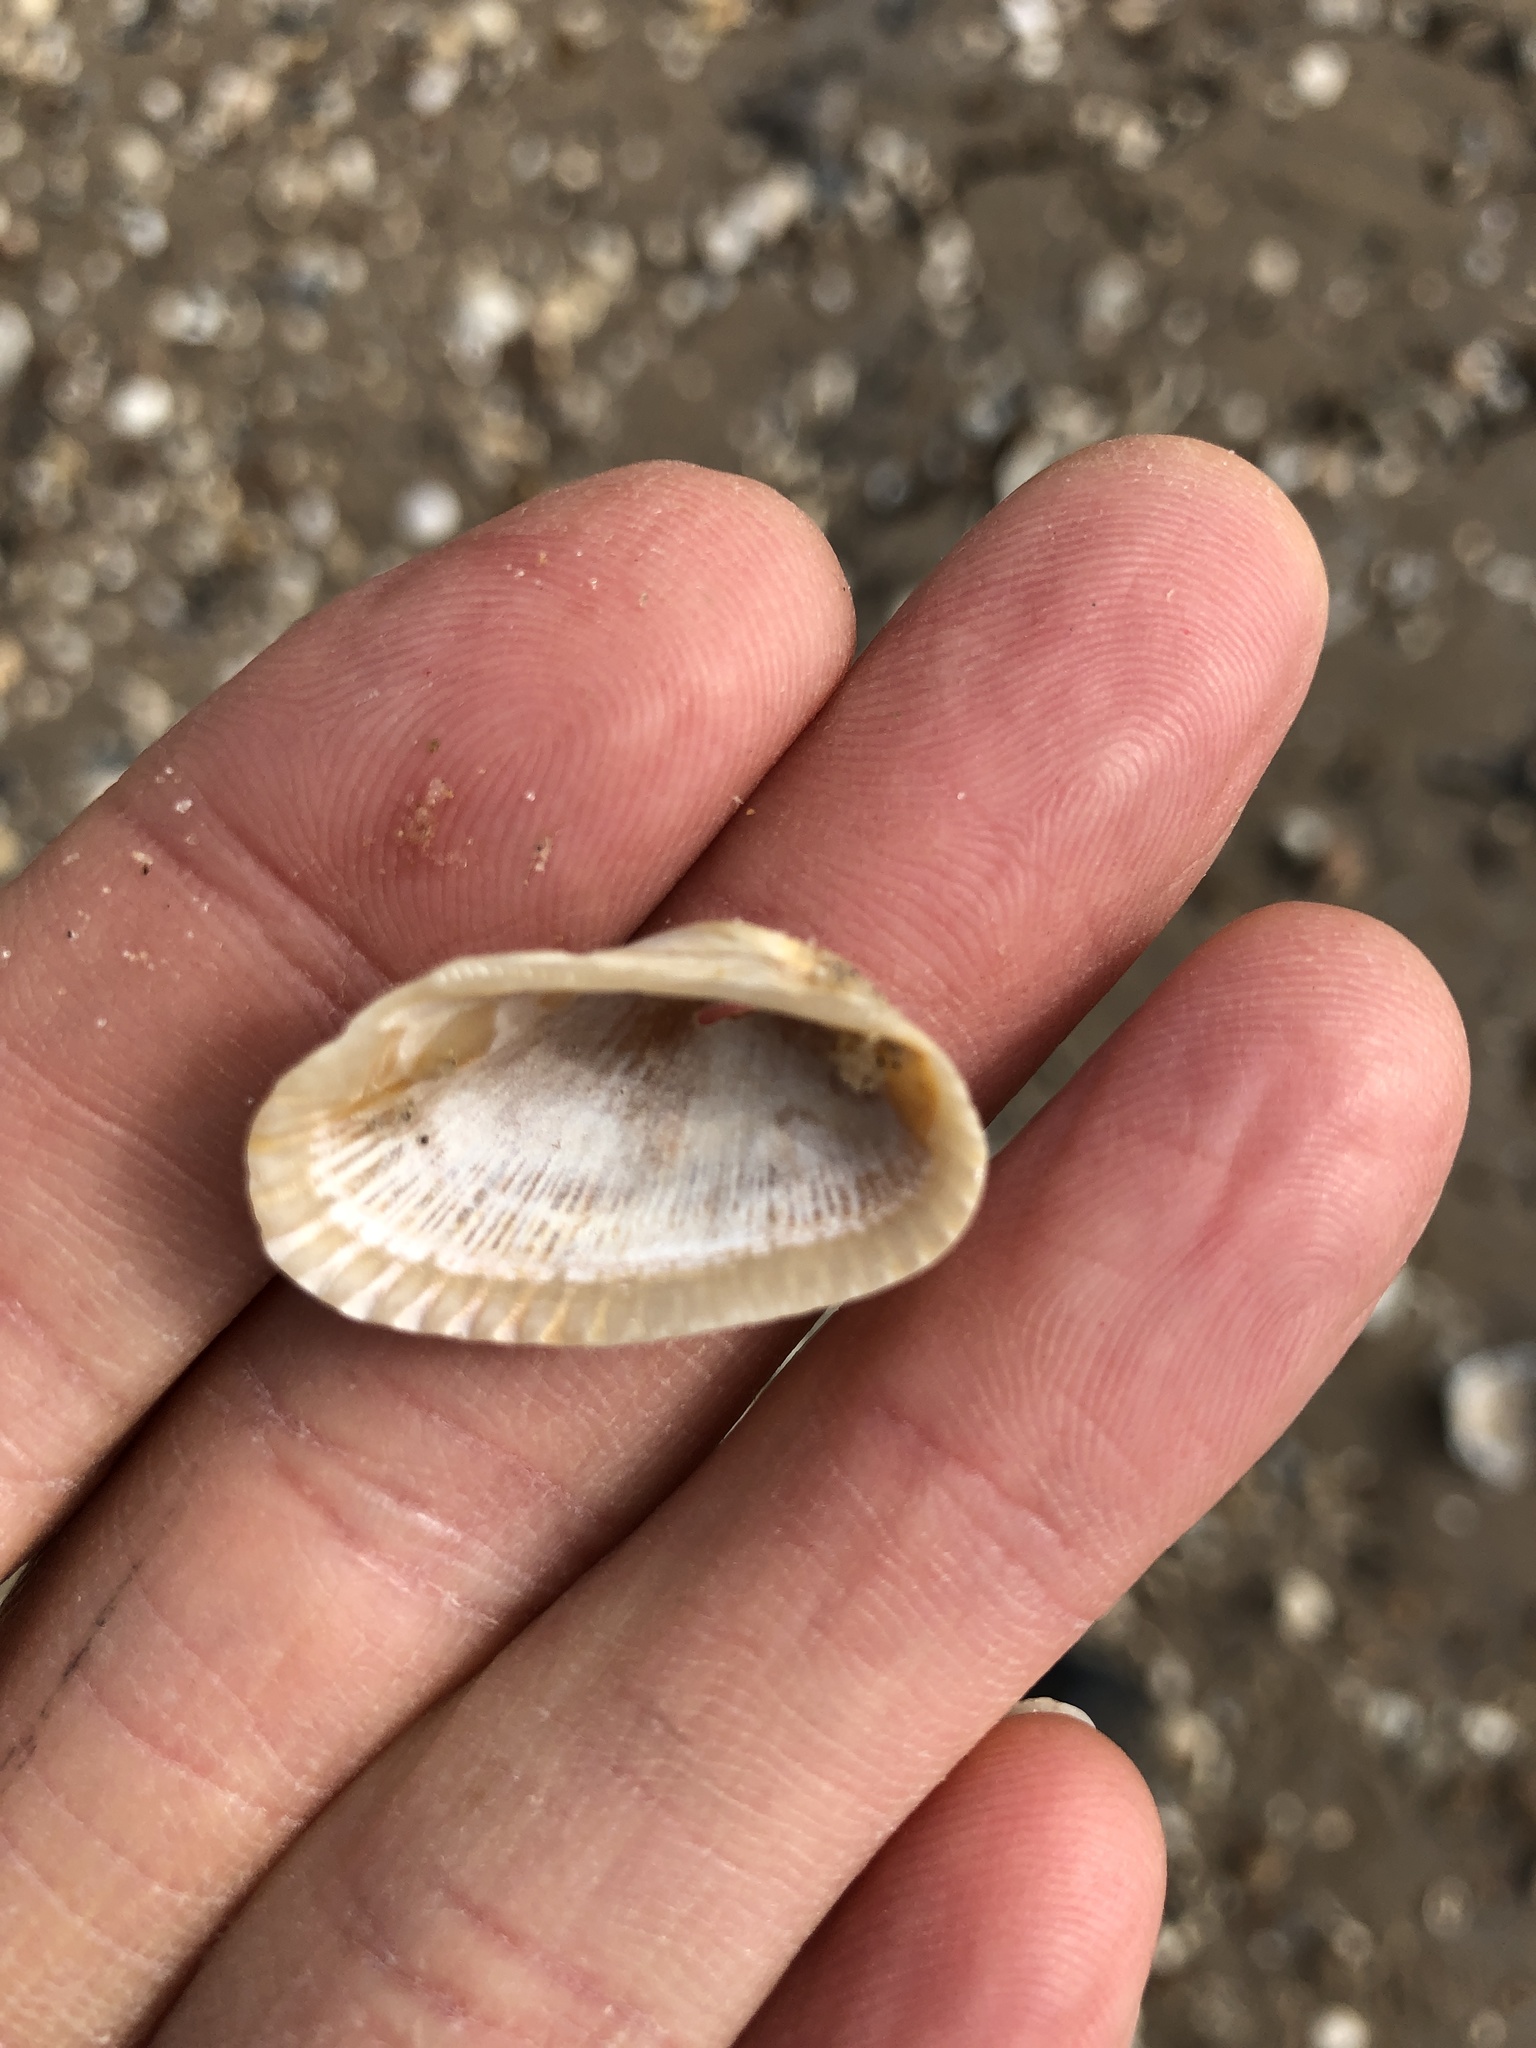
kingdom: Animalia
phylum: Mollusca
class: Bivalvia
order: Arcida
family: Arcidae
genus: Anadara
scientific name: Anadara transversa
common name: Transverse ark
